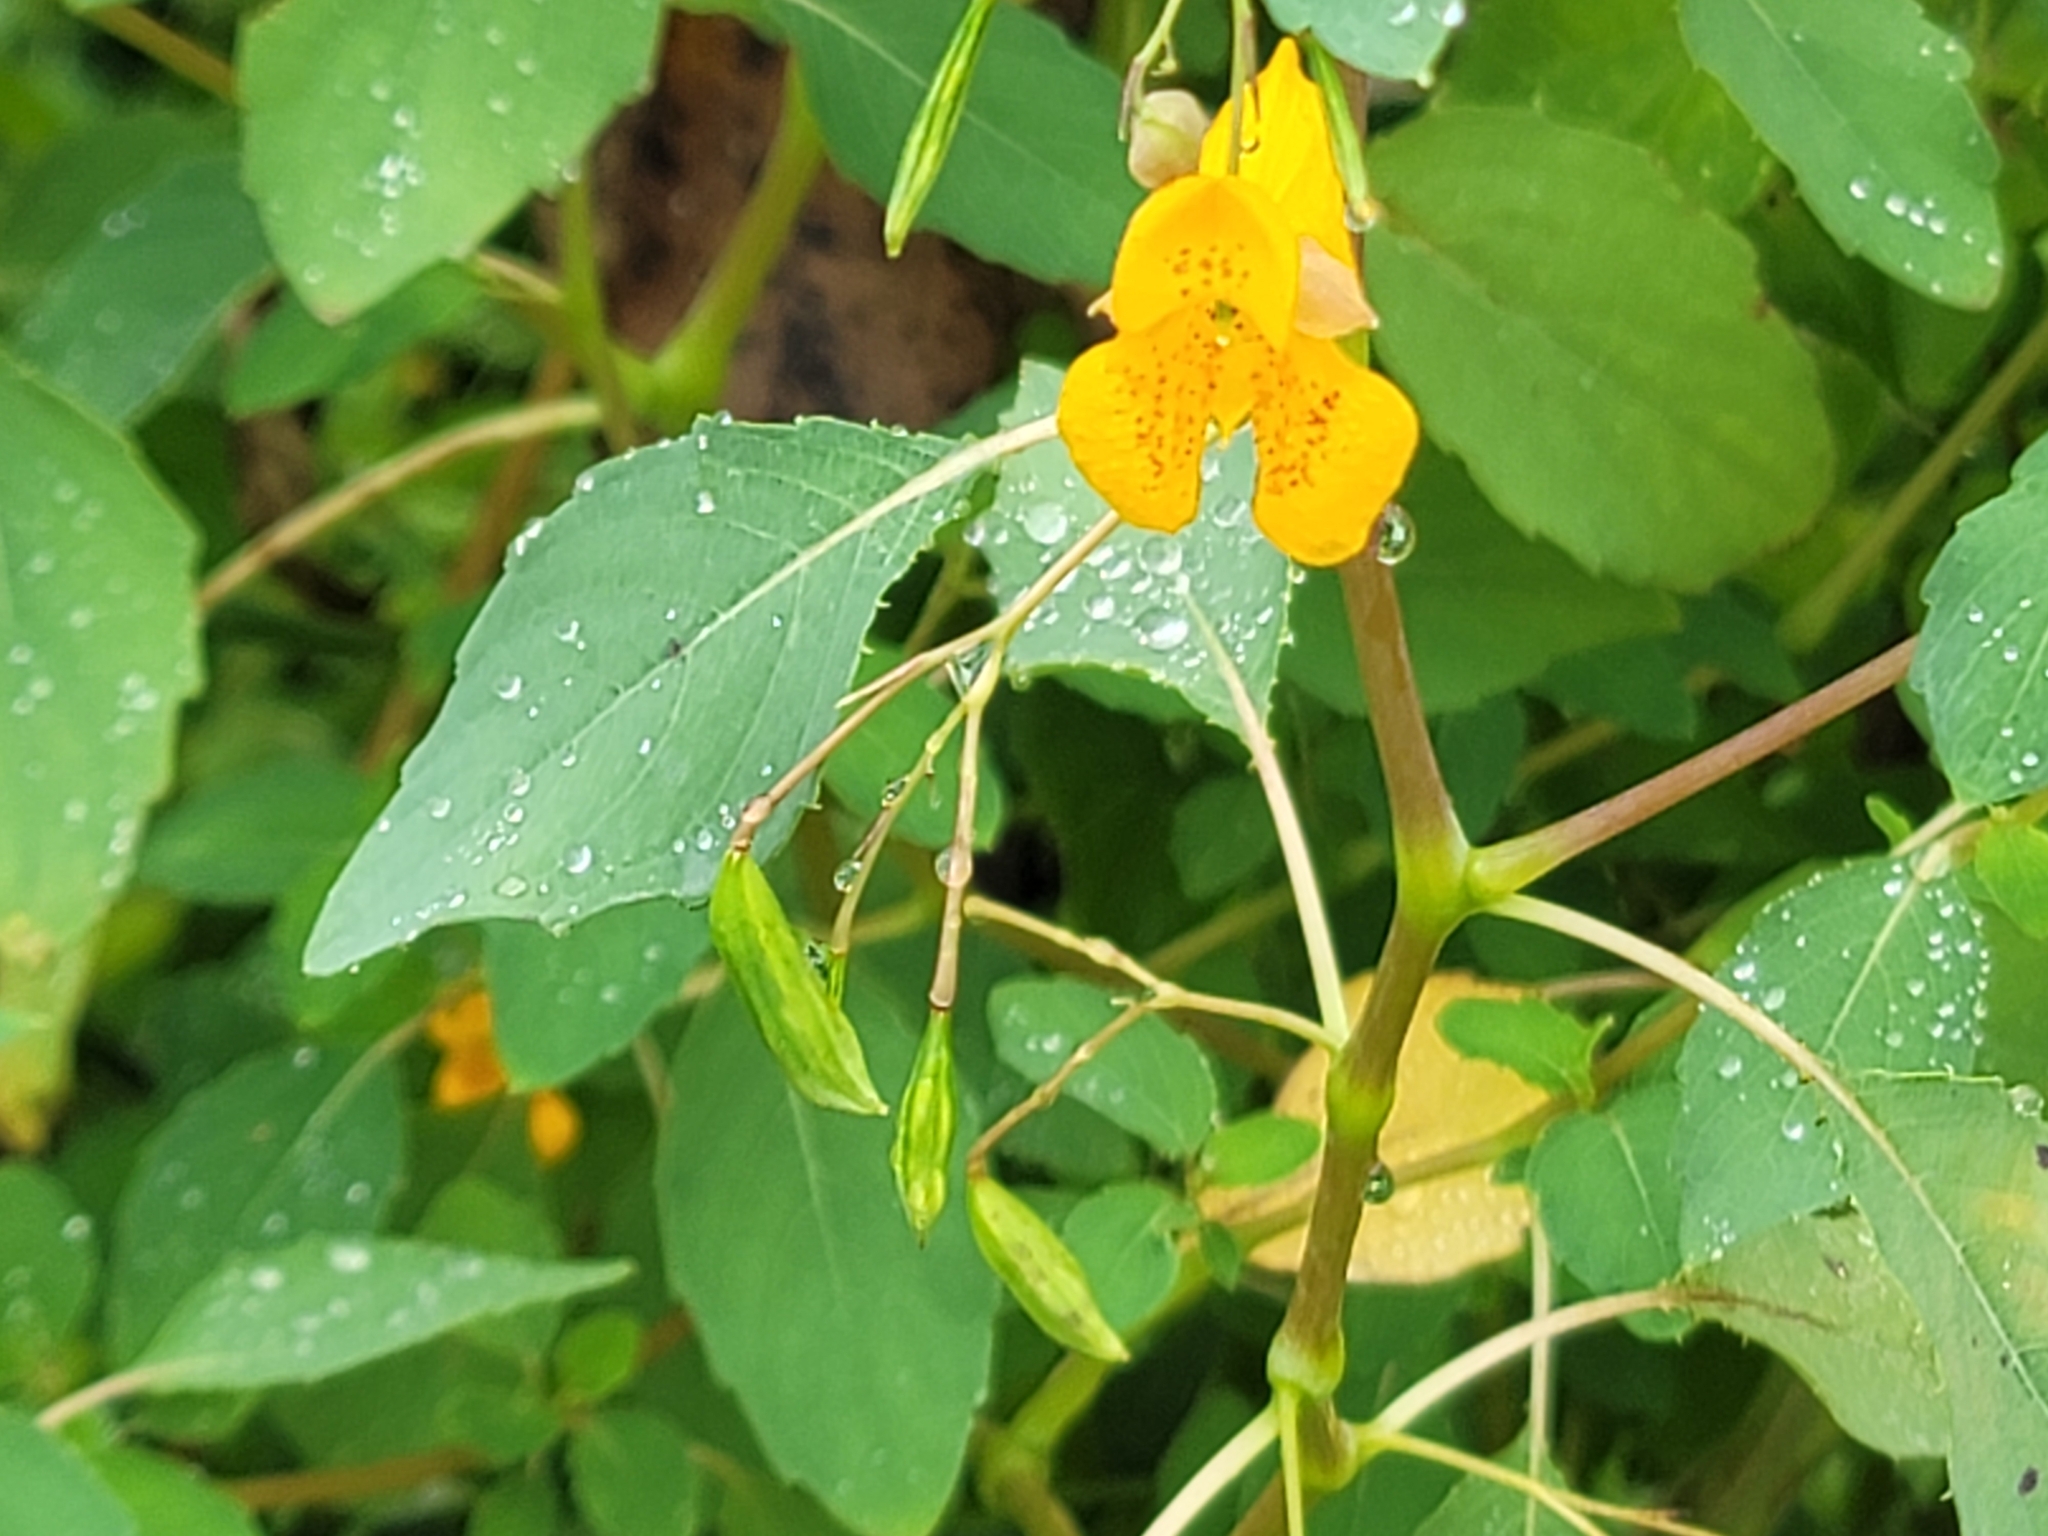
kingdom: Plantae
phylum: Tracheophyta
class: Magnoliopsida
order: Ericales
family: Balsaminaceae
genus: Impatiens
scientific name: Impatiens capensis
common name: Orange balsam
